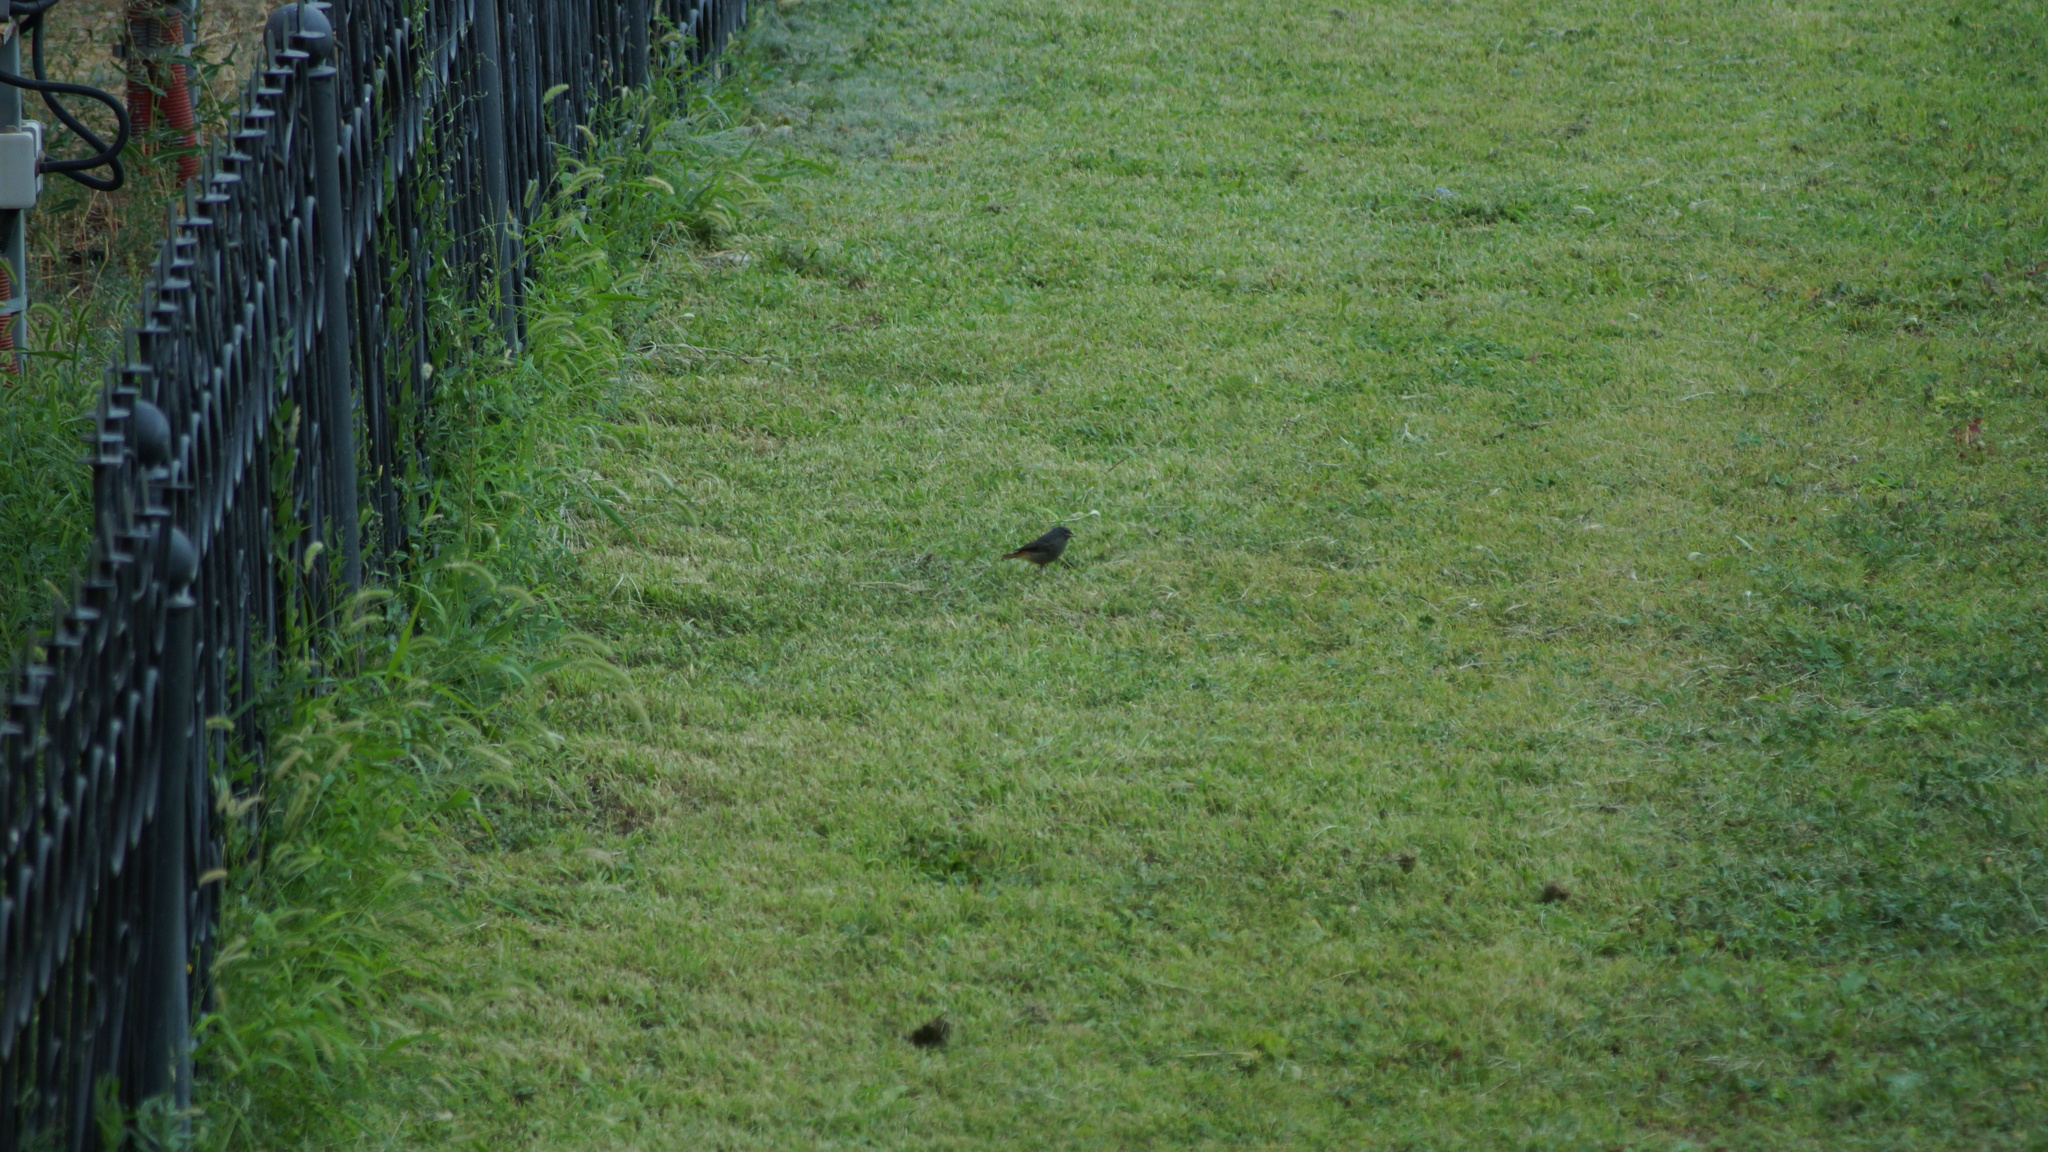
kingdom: Animalia
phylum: Chordata
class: Aves
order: Passeriformes
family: Muscicapidae
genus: Phoenicurus
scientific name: Phoenicurus ochruros
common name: Black redstart
